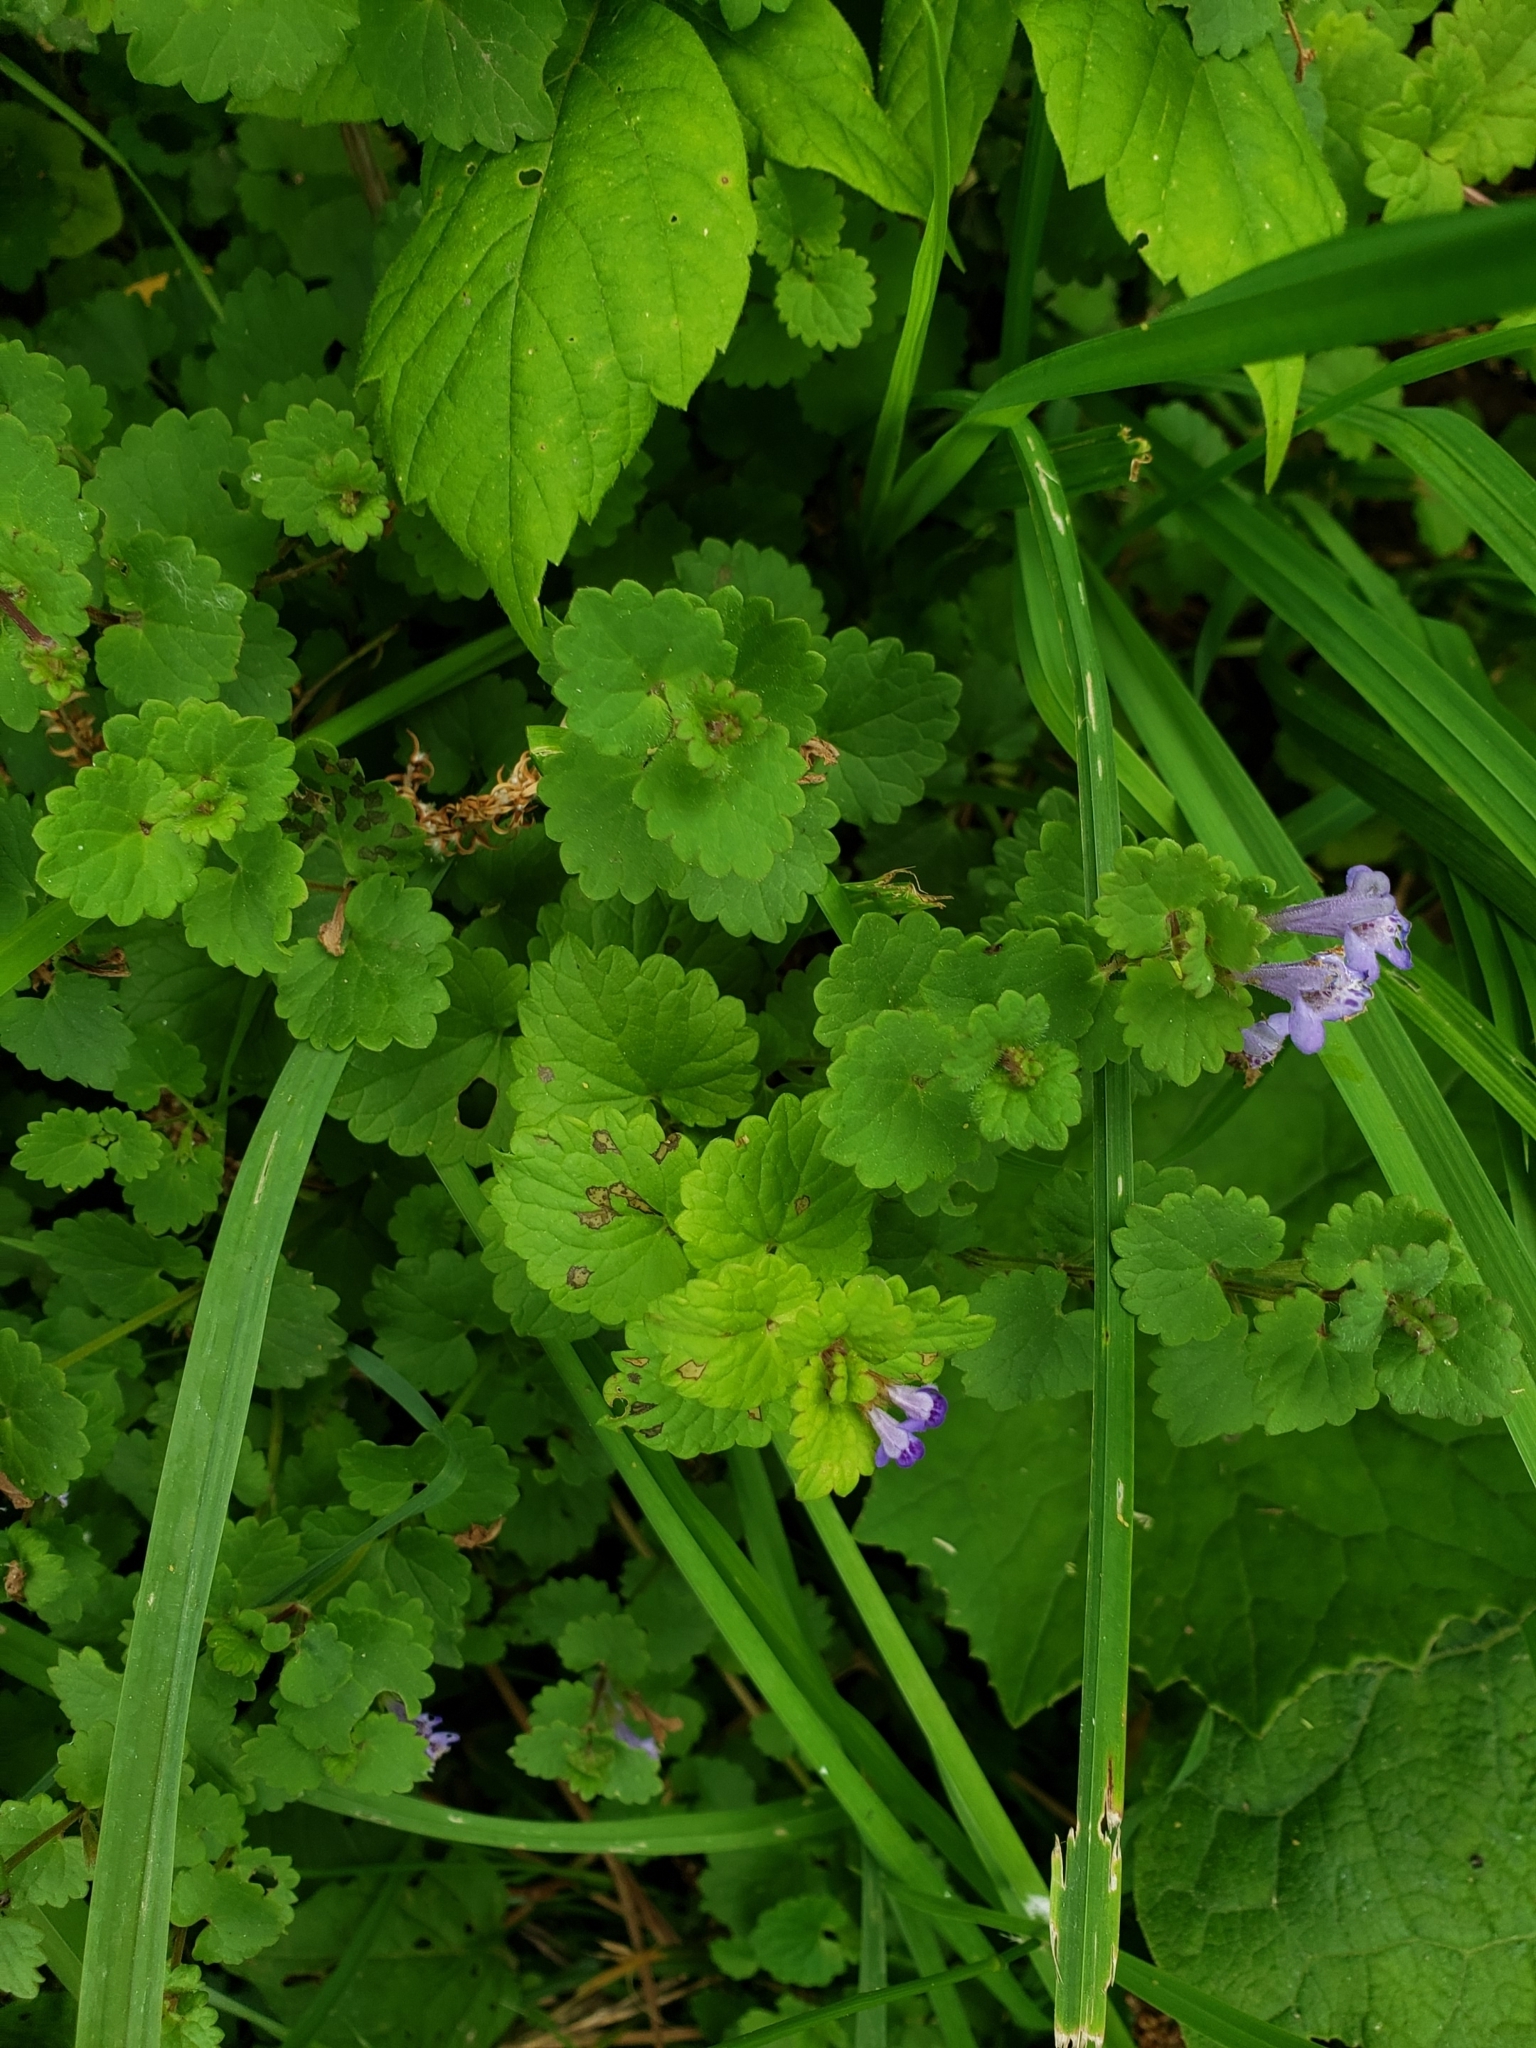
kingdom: Plantae
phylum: Tracheophyta
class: Magnoliopsida
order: Lamiales
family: Lamiaceae
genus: Glechoma
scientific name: Glechoma hederacea
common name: Ground ivy
